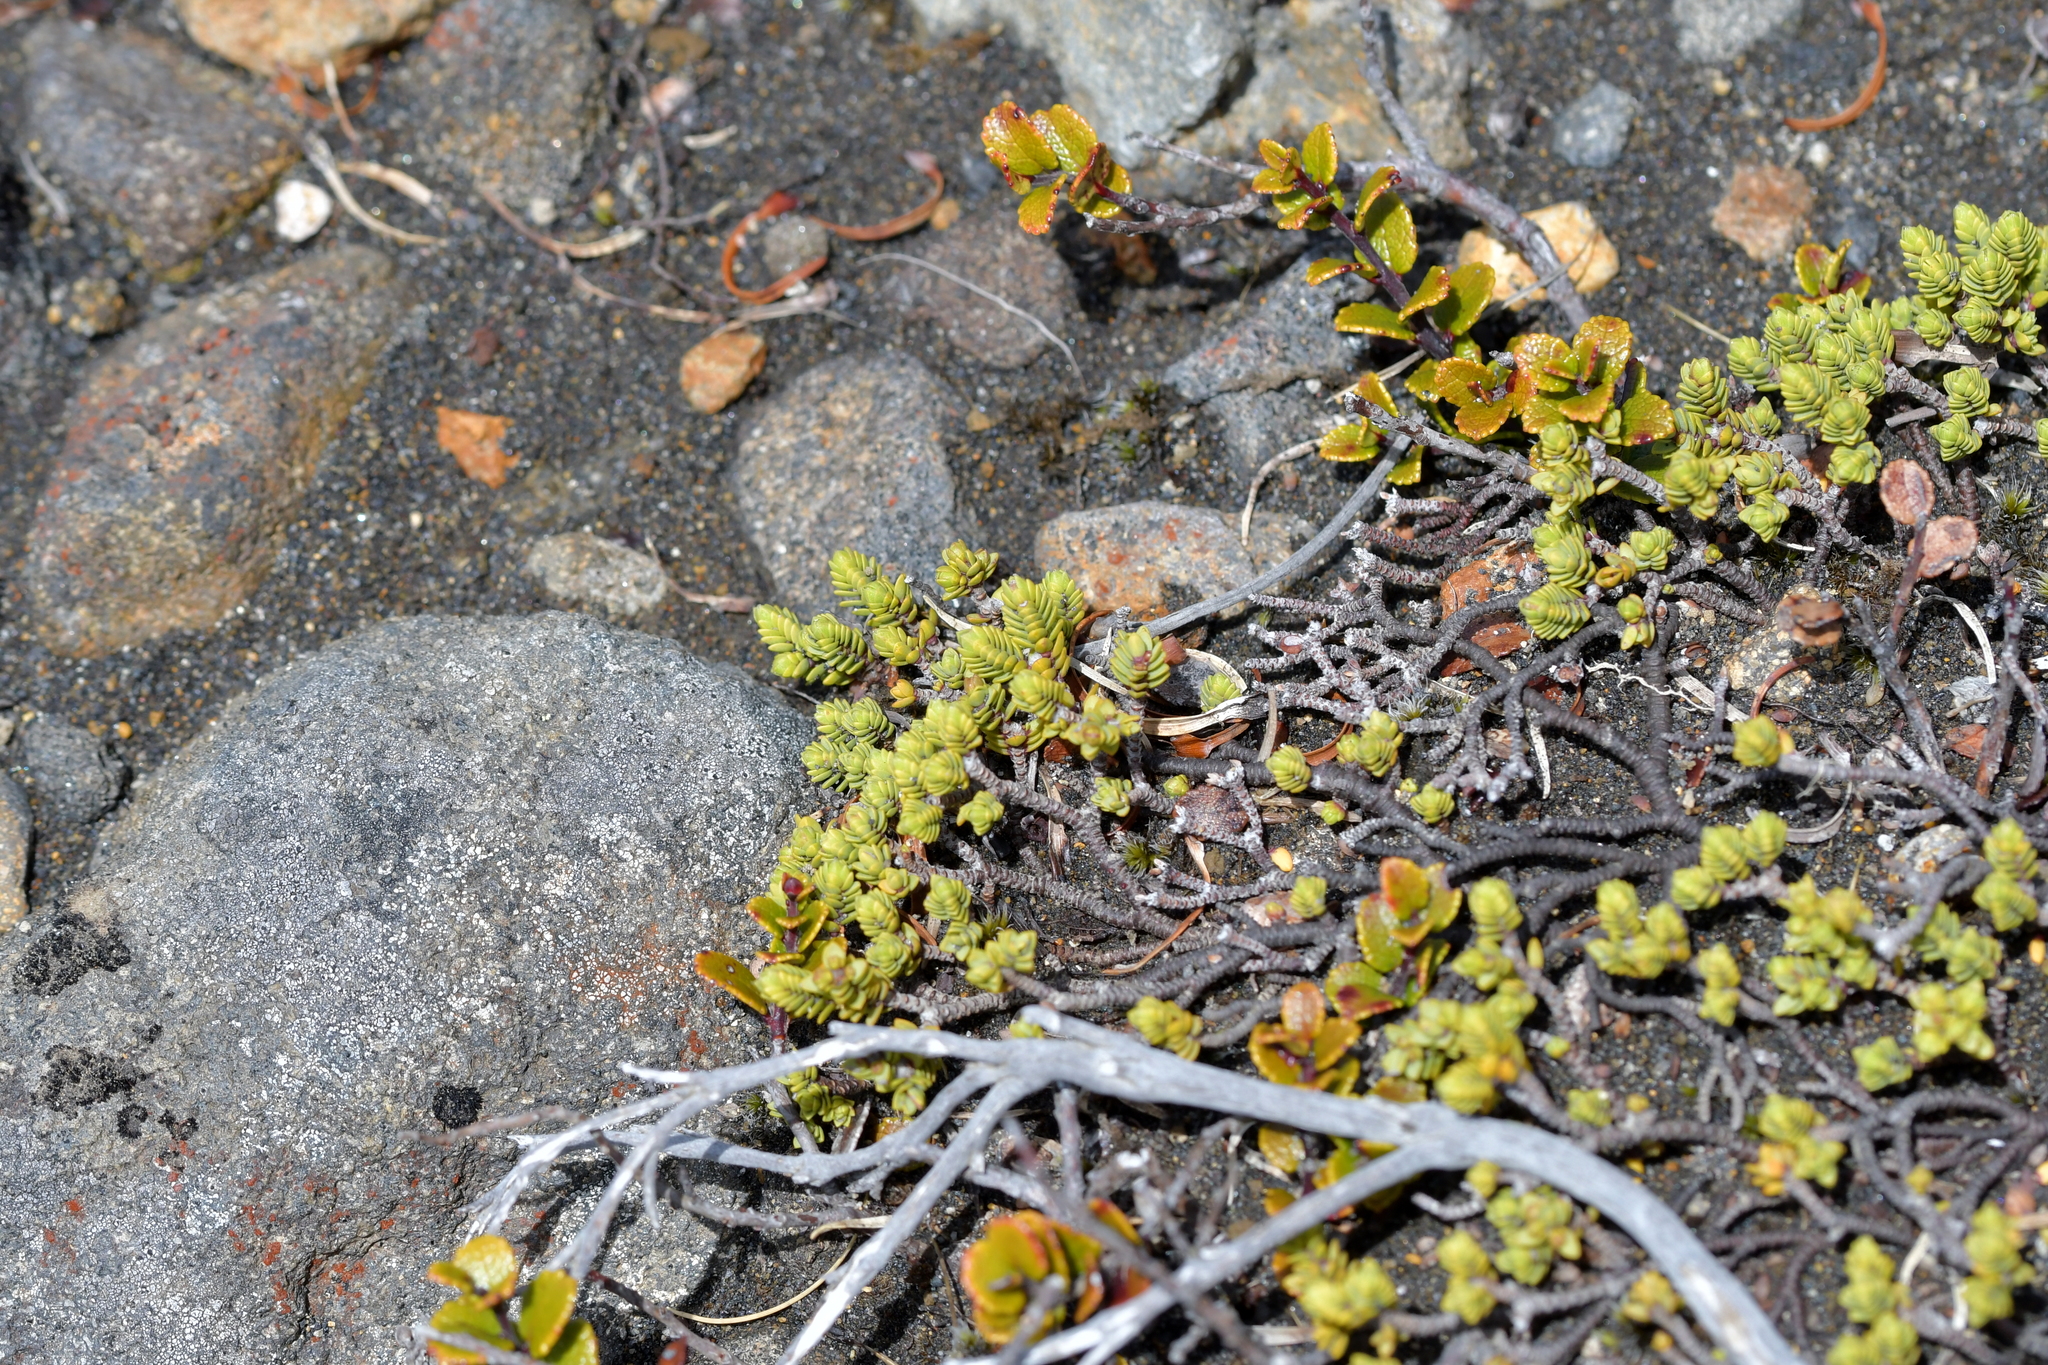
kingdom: Plantae
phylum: Tracheophyta
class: Magnoliopsida
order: Malvales
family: Thymelaeaceae
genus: Pimelea
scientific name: Pimelea microphylla
